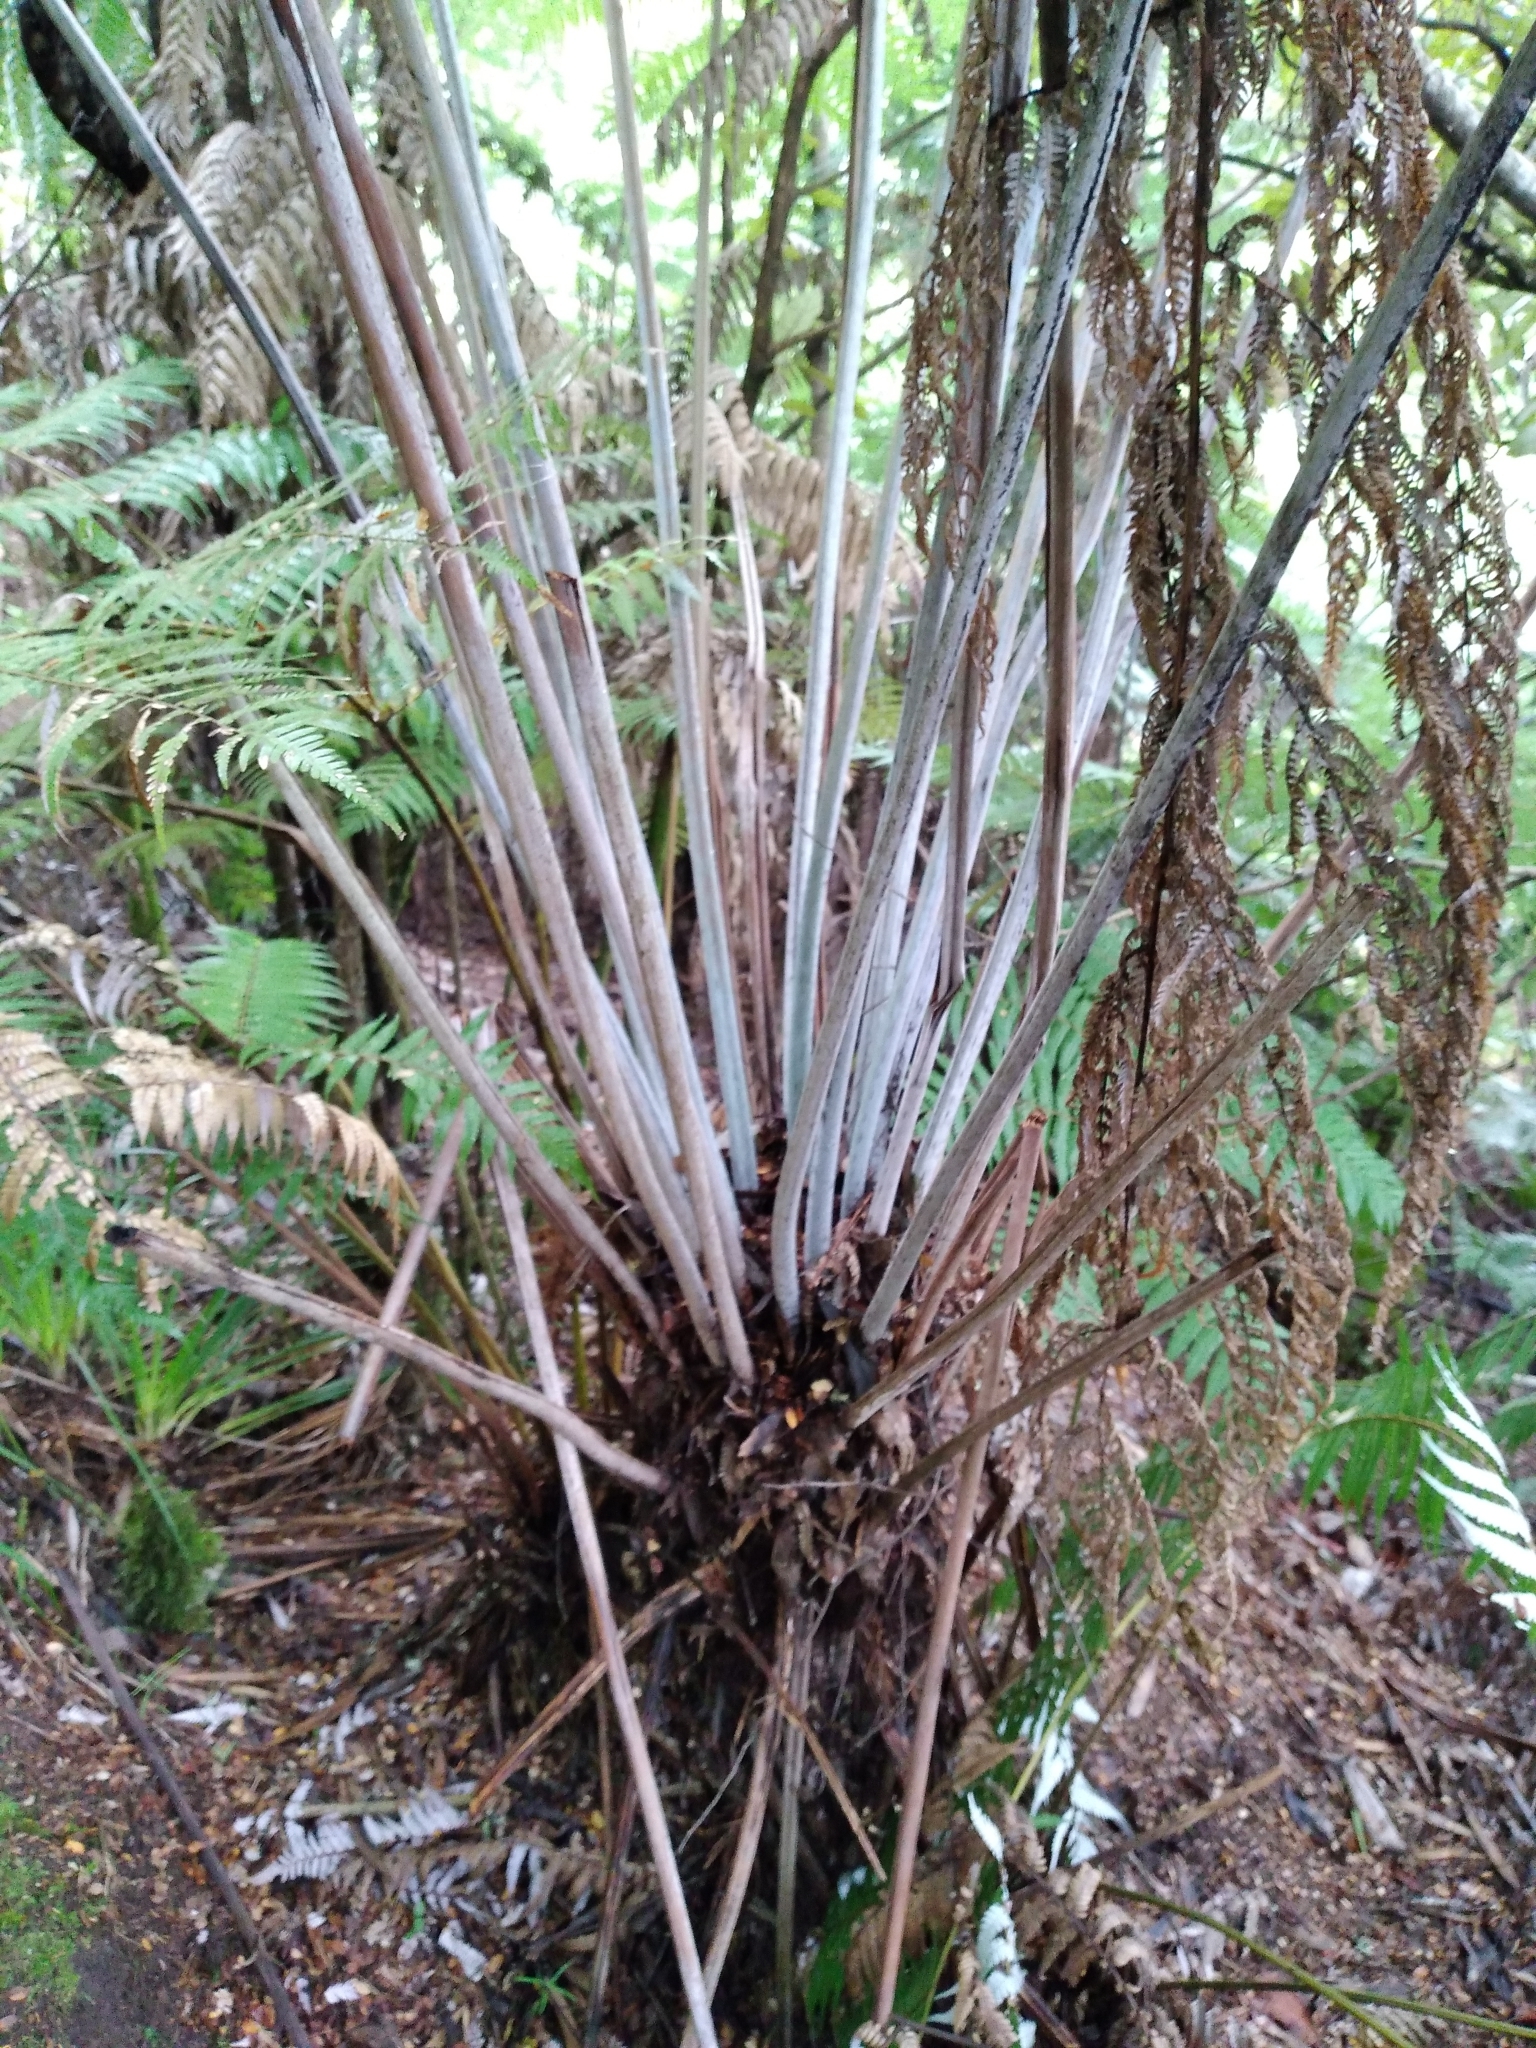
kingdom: Plantae
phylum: Tracheophyta
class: Polypodiopsida
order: Cyatheales
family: Cyatheaceae
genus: Alsophila
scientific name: Alsophila dealbata
